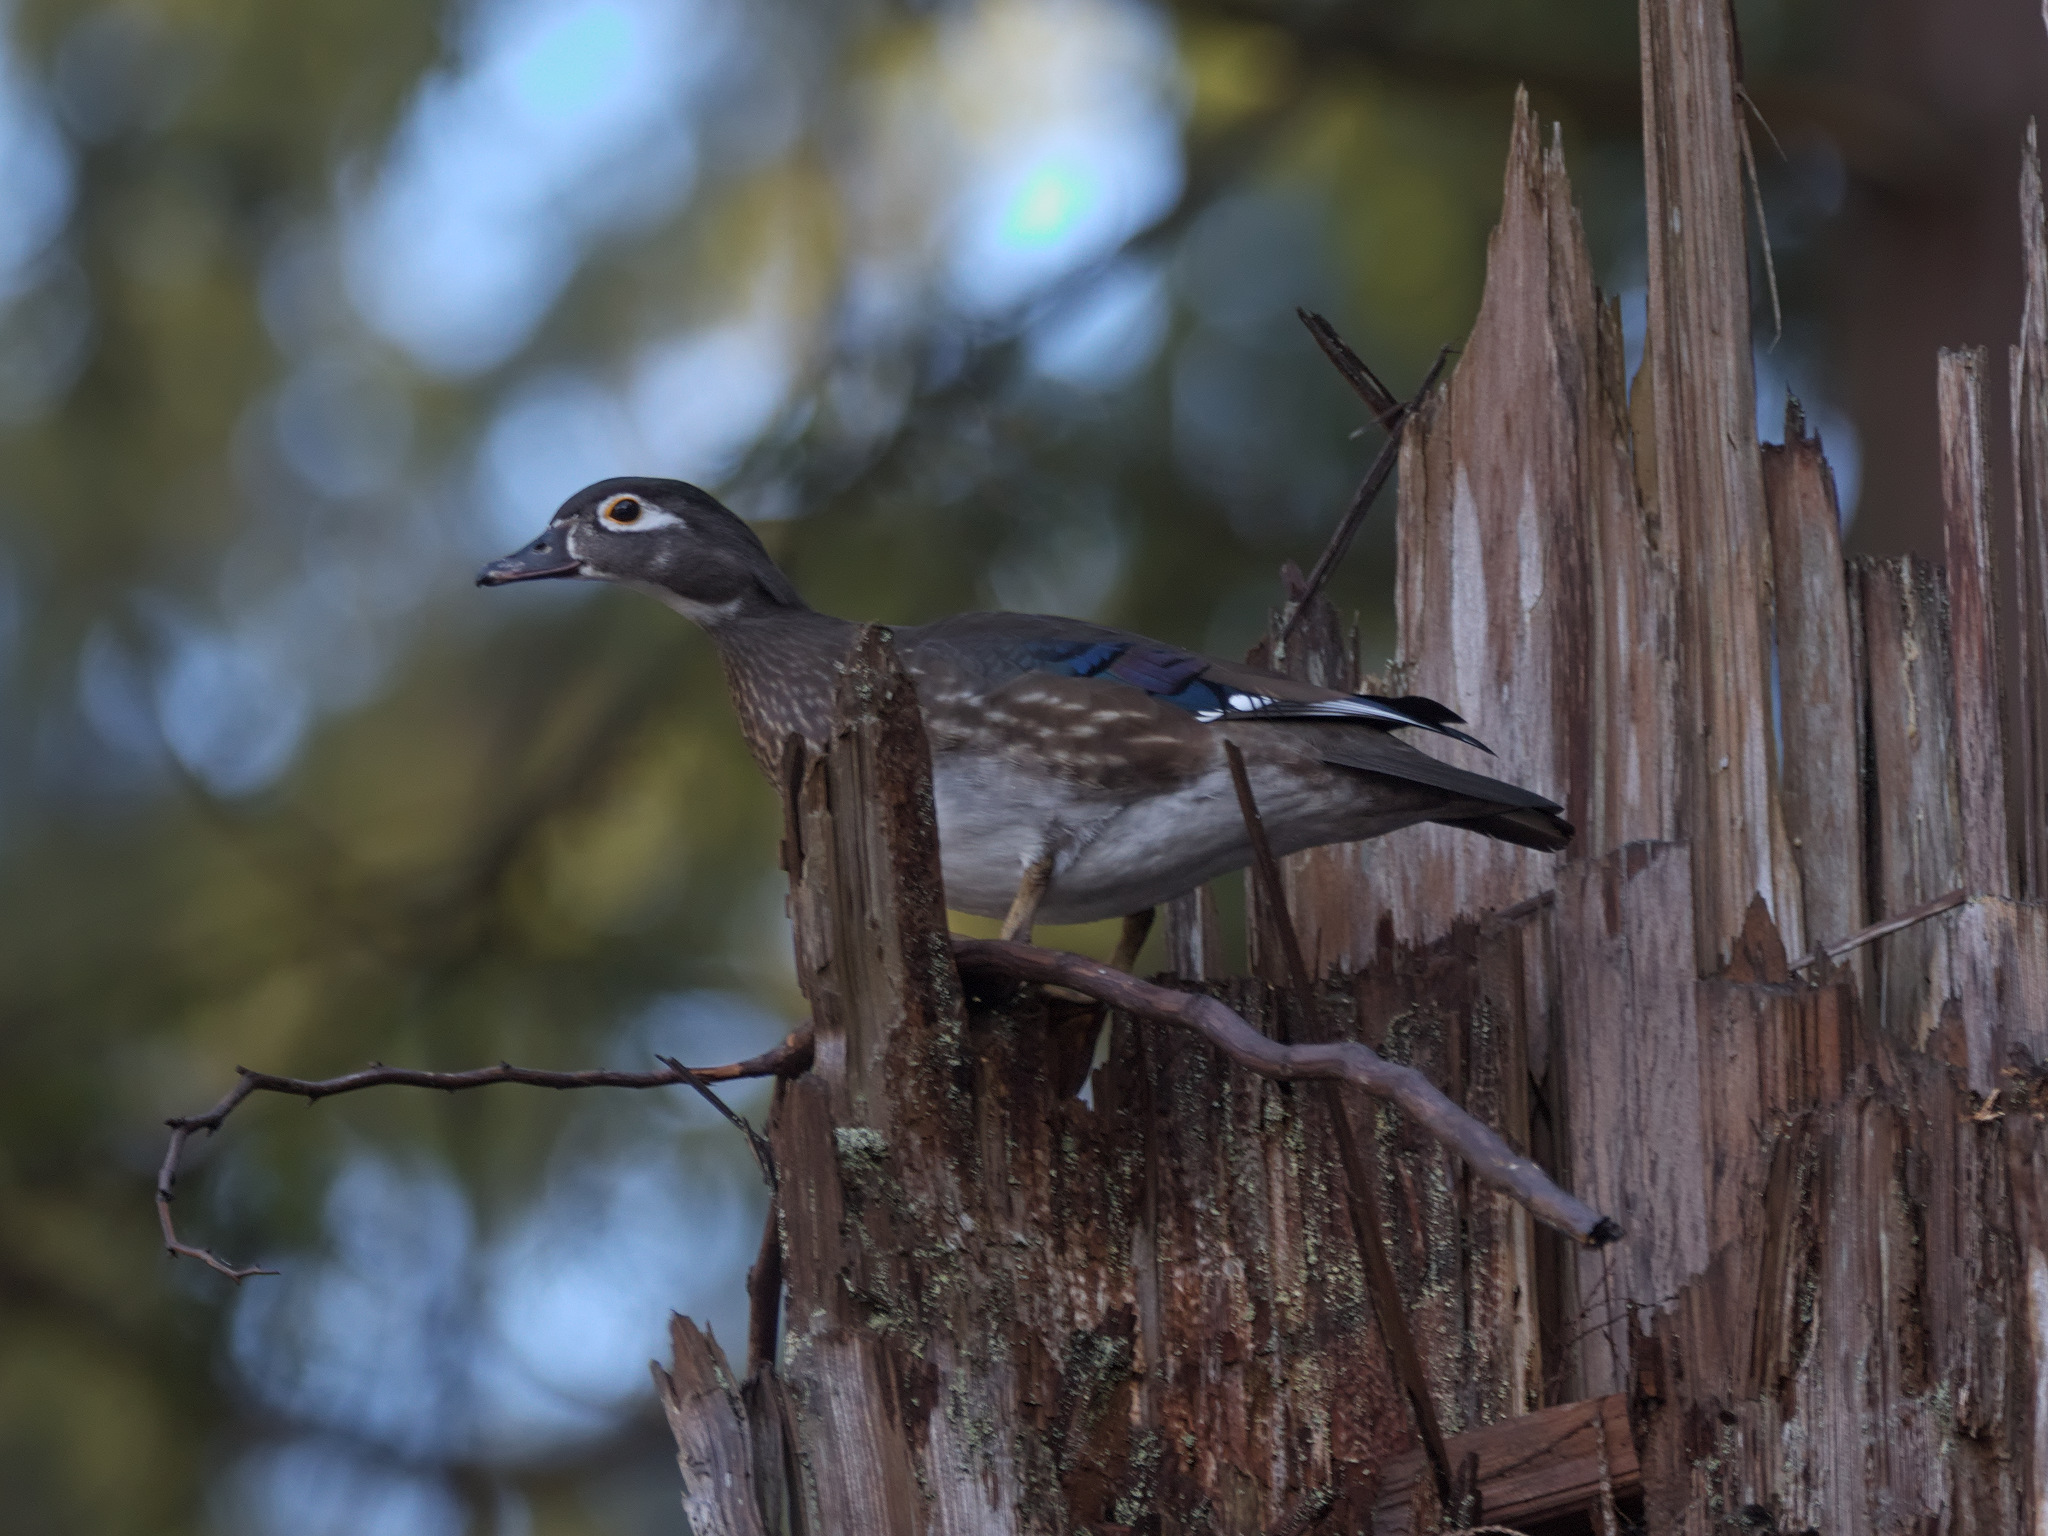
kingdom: Animalia
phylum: Chordata
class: Aves
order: Anseriformes
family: Anatidae
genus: Aix
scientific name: Aix sponsa
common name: Wood duck
